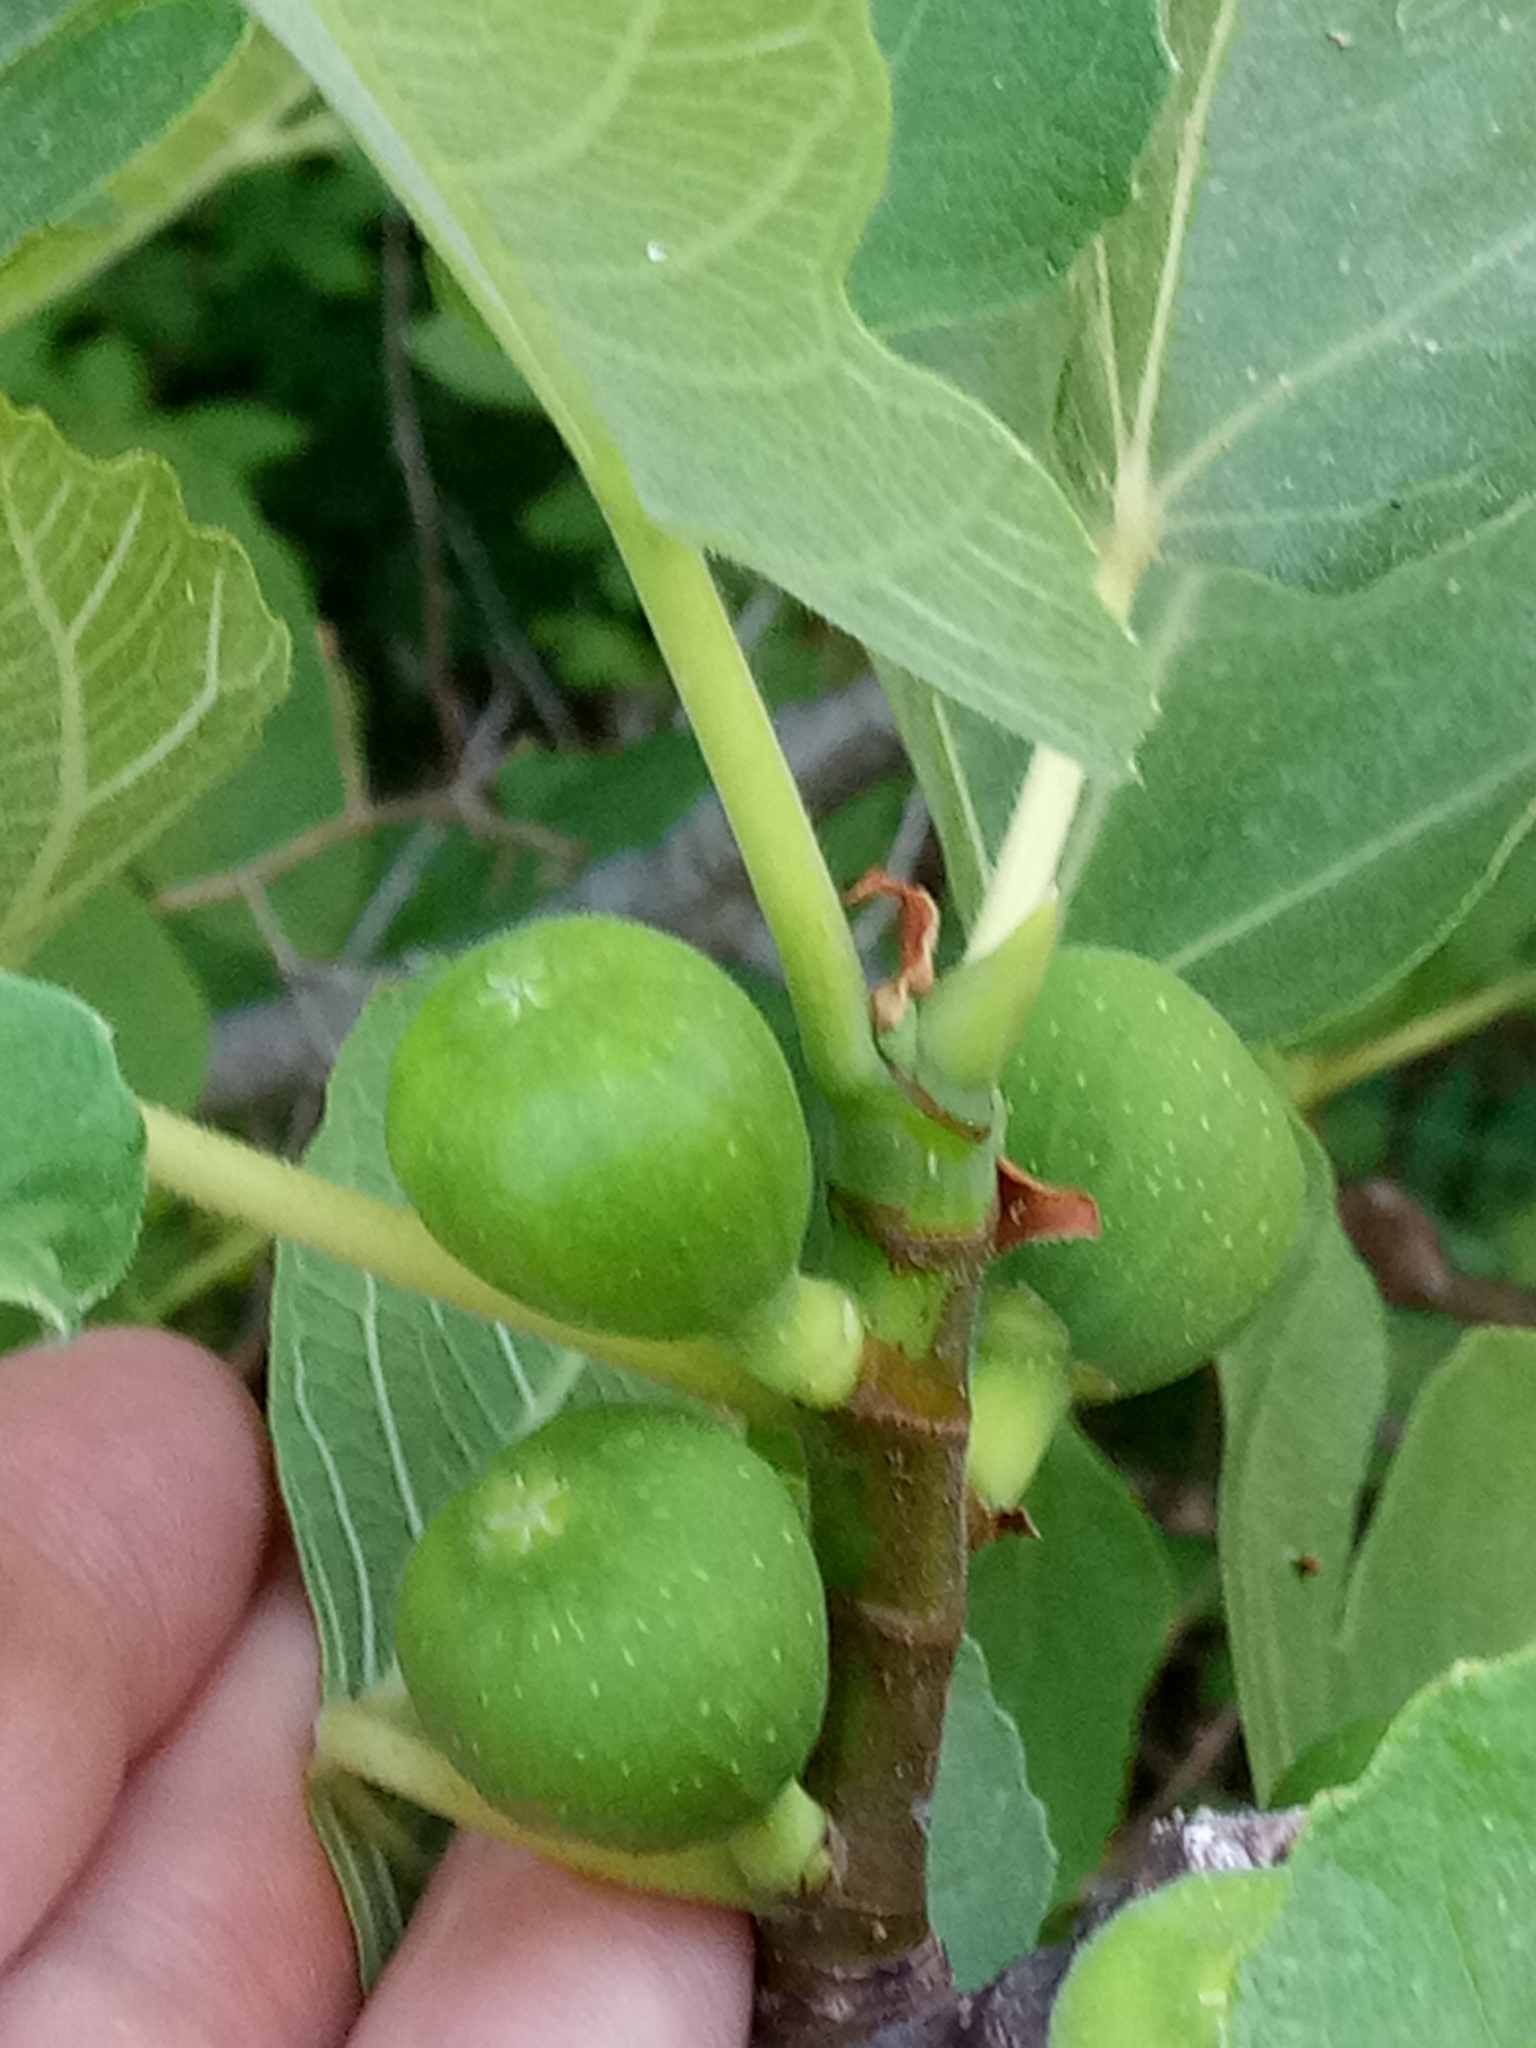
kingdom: Plantae
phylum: Tracheophyta
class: Magnoliopsida
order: Rosales
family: Moraceae
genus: Ficus
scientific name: Ficus carica
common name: Fig
